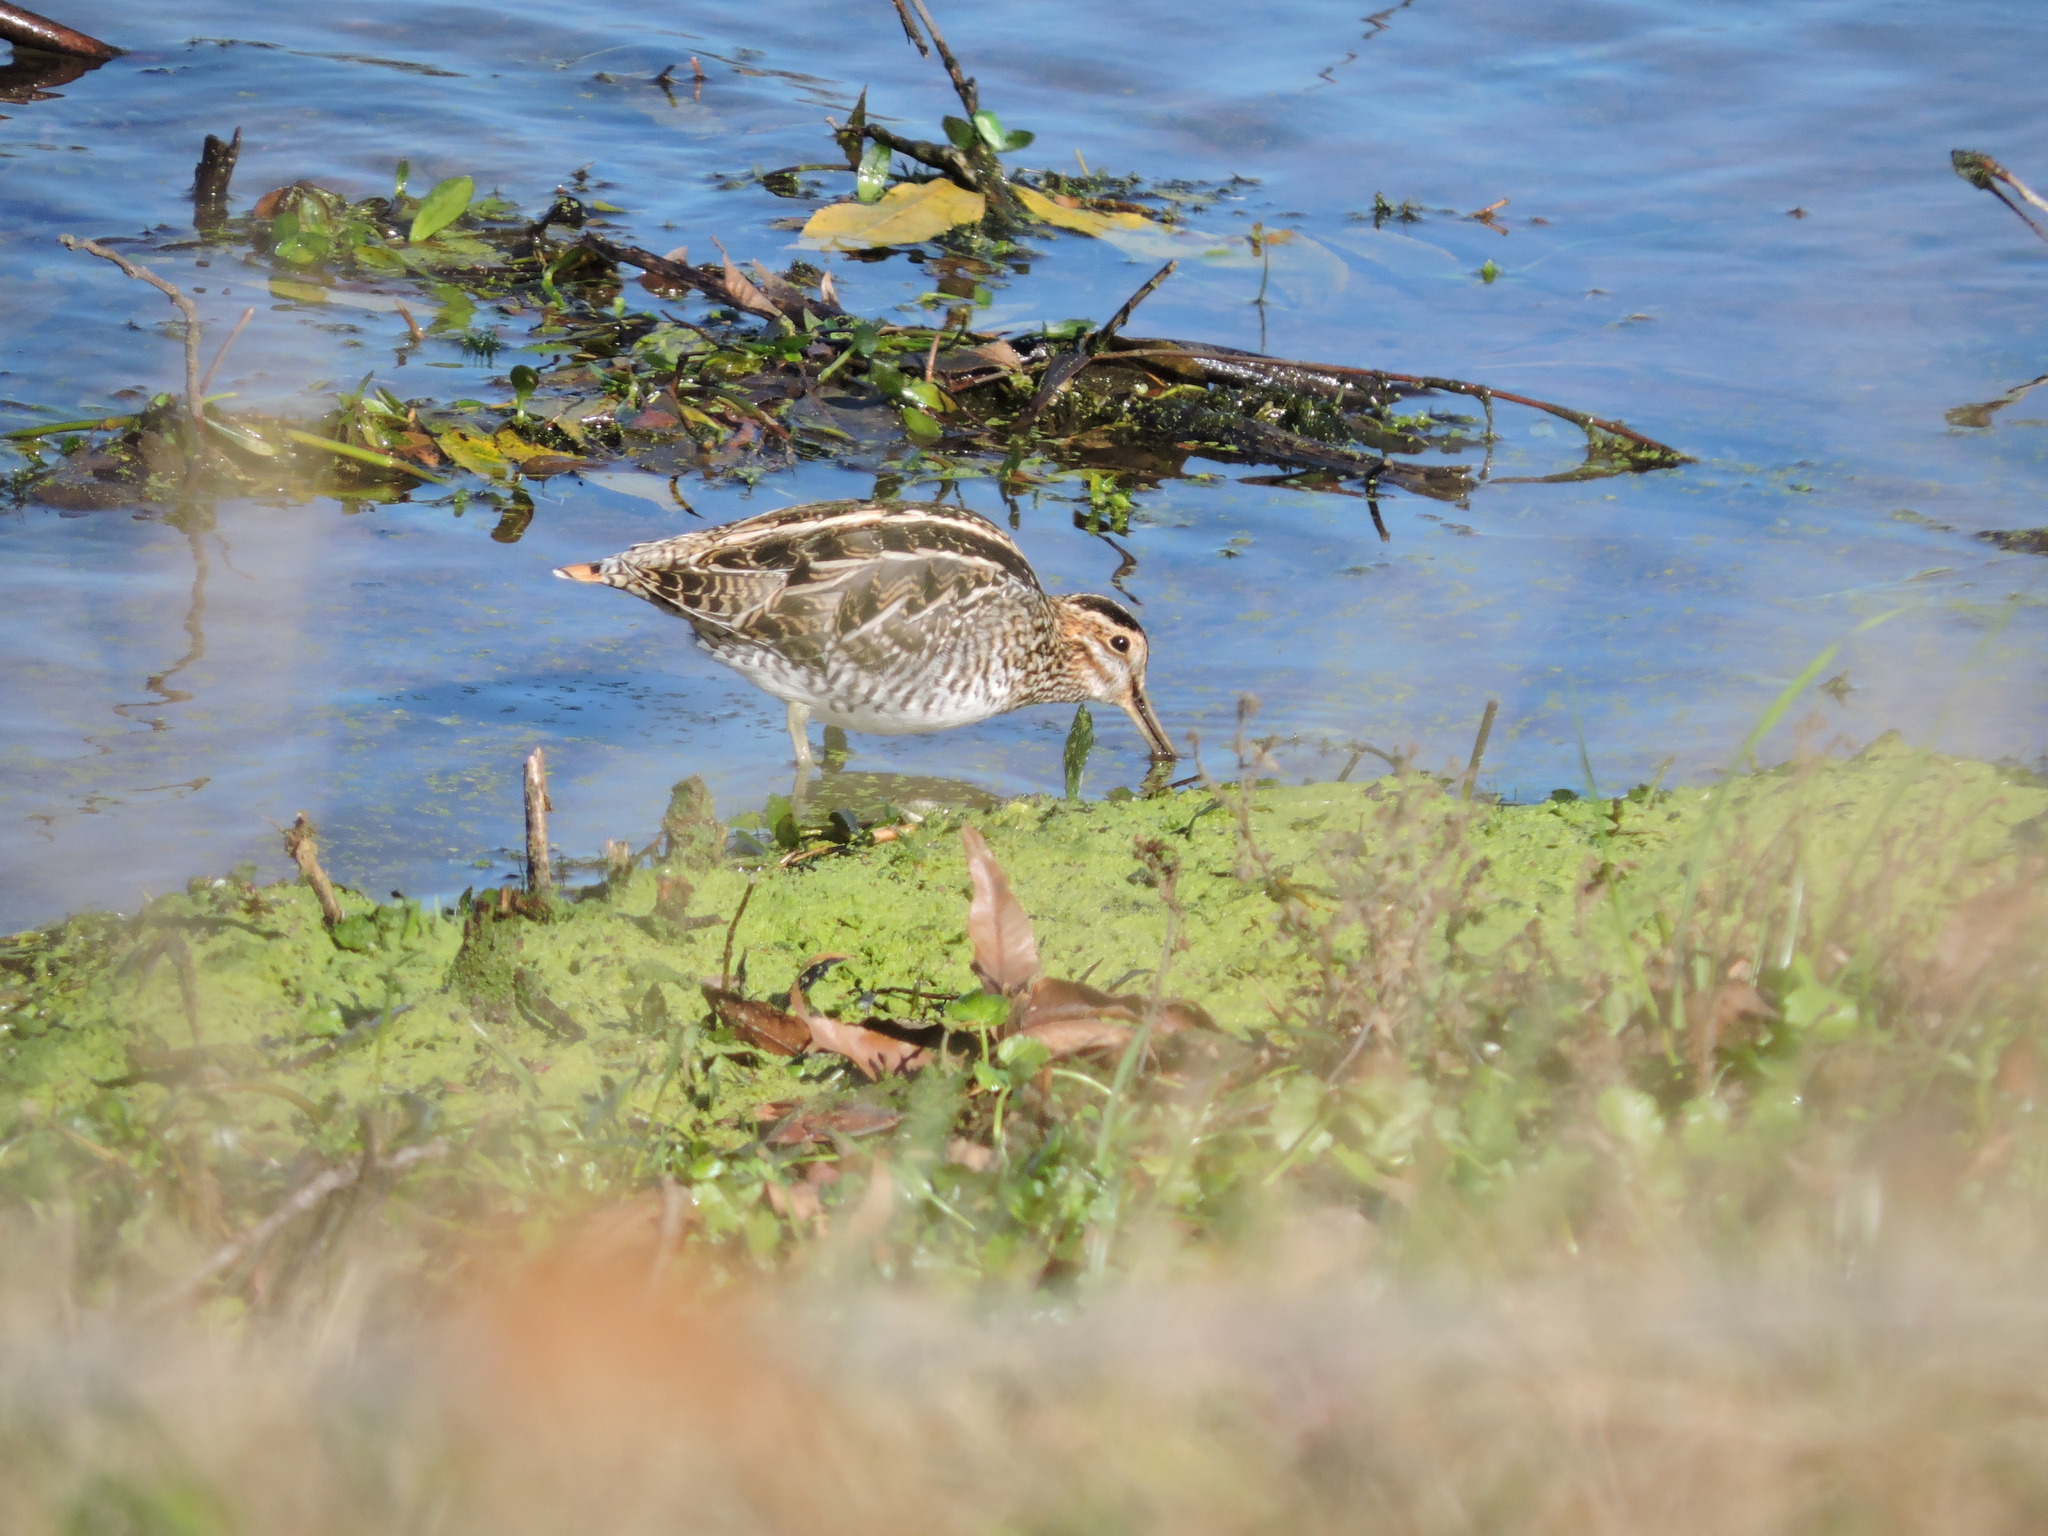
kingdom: Animalia
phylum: Chordata
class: Aves
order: Charadriiformes
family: Scolopacidae
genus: Gallinago
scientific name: Gallinago delicata
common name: Wilson's snipe
